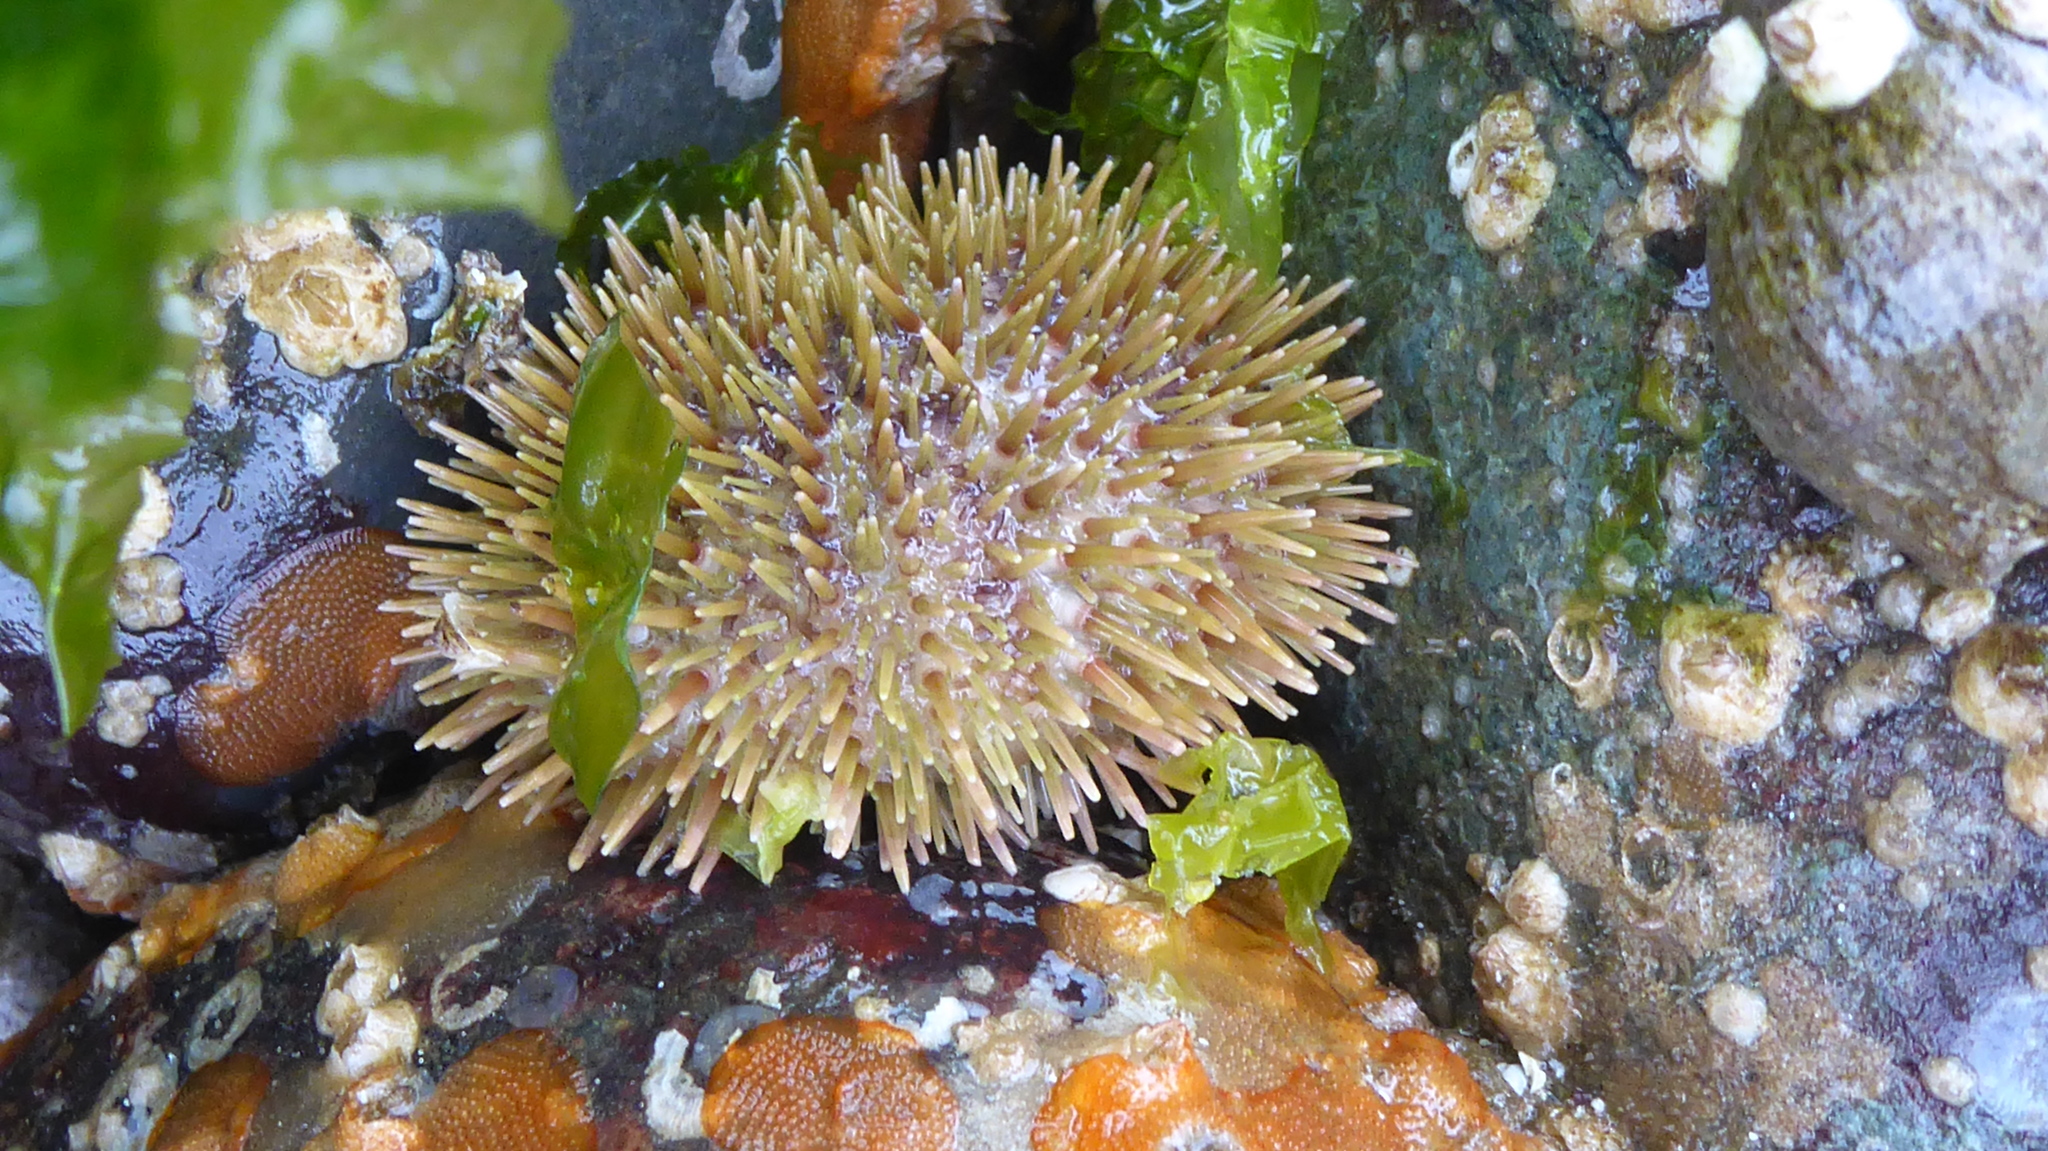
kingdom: Animalia
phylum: Echinodermata
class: Echinoidea
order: Camarodonta
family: Strongylocentrotidae
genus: Strongylocentrotus
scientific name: Strongylocentrotus droebachiensis
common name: Northern sea urchin
